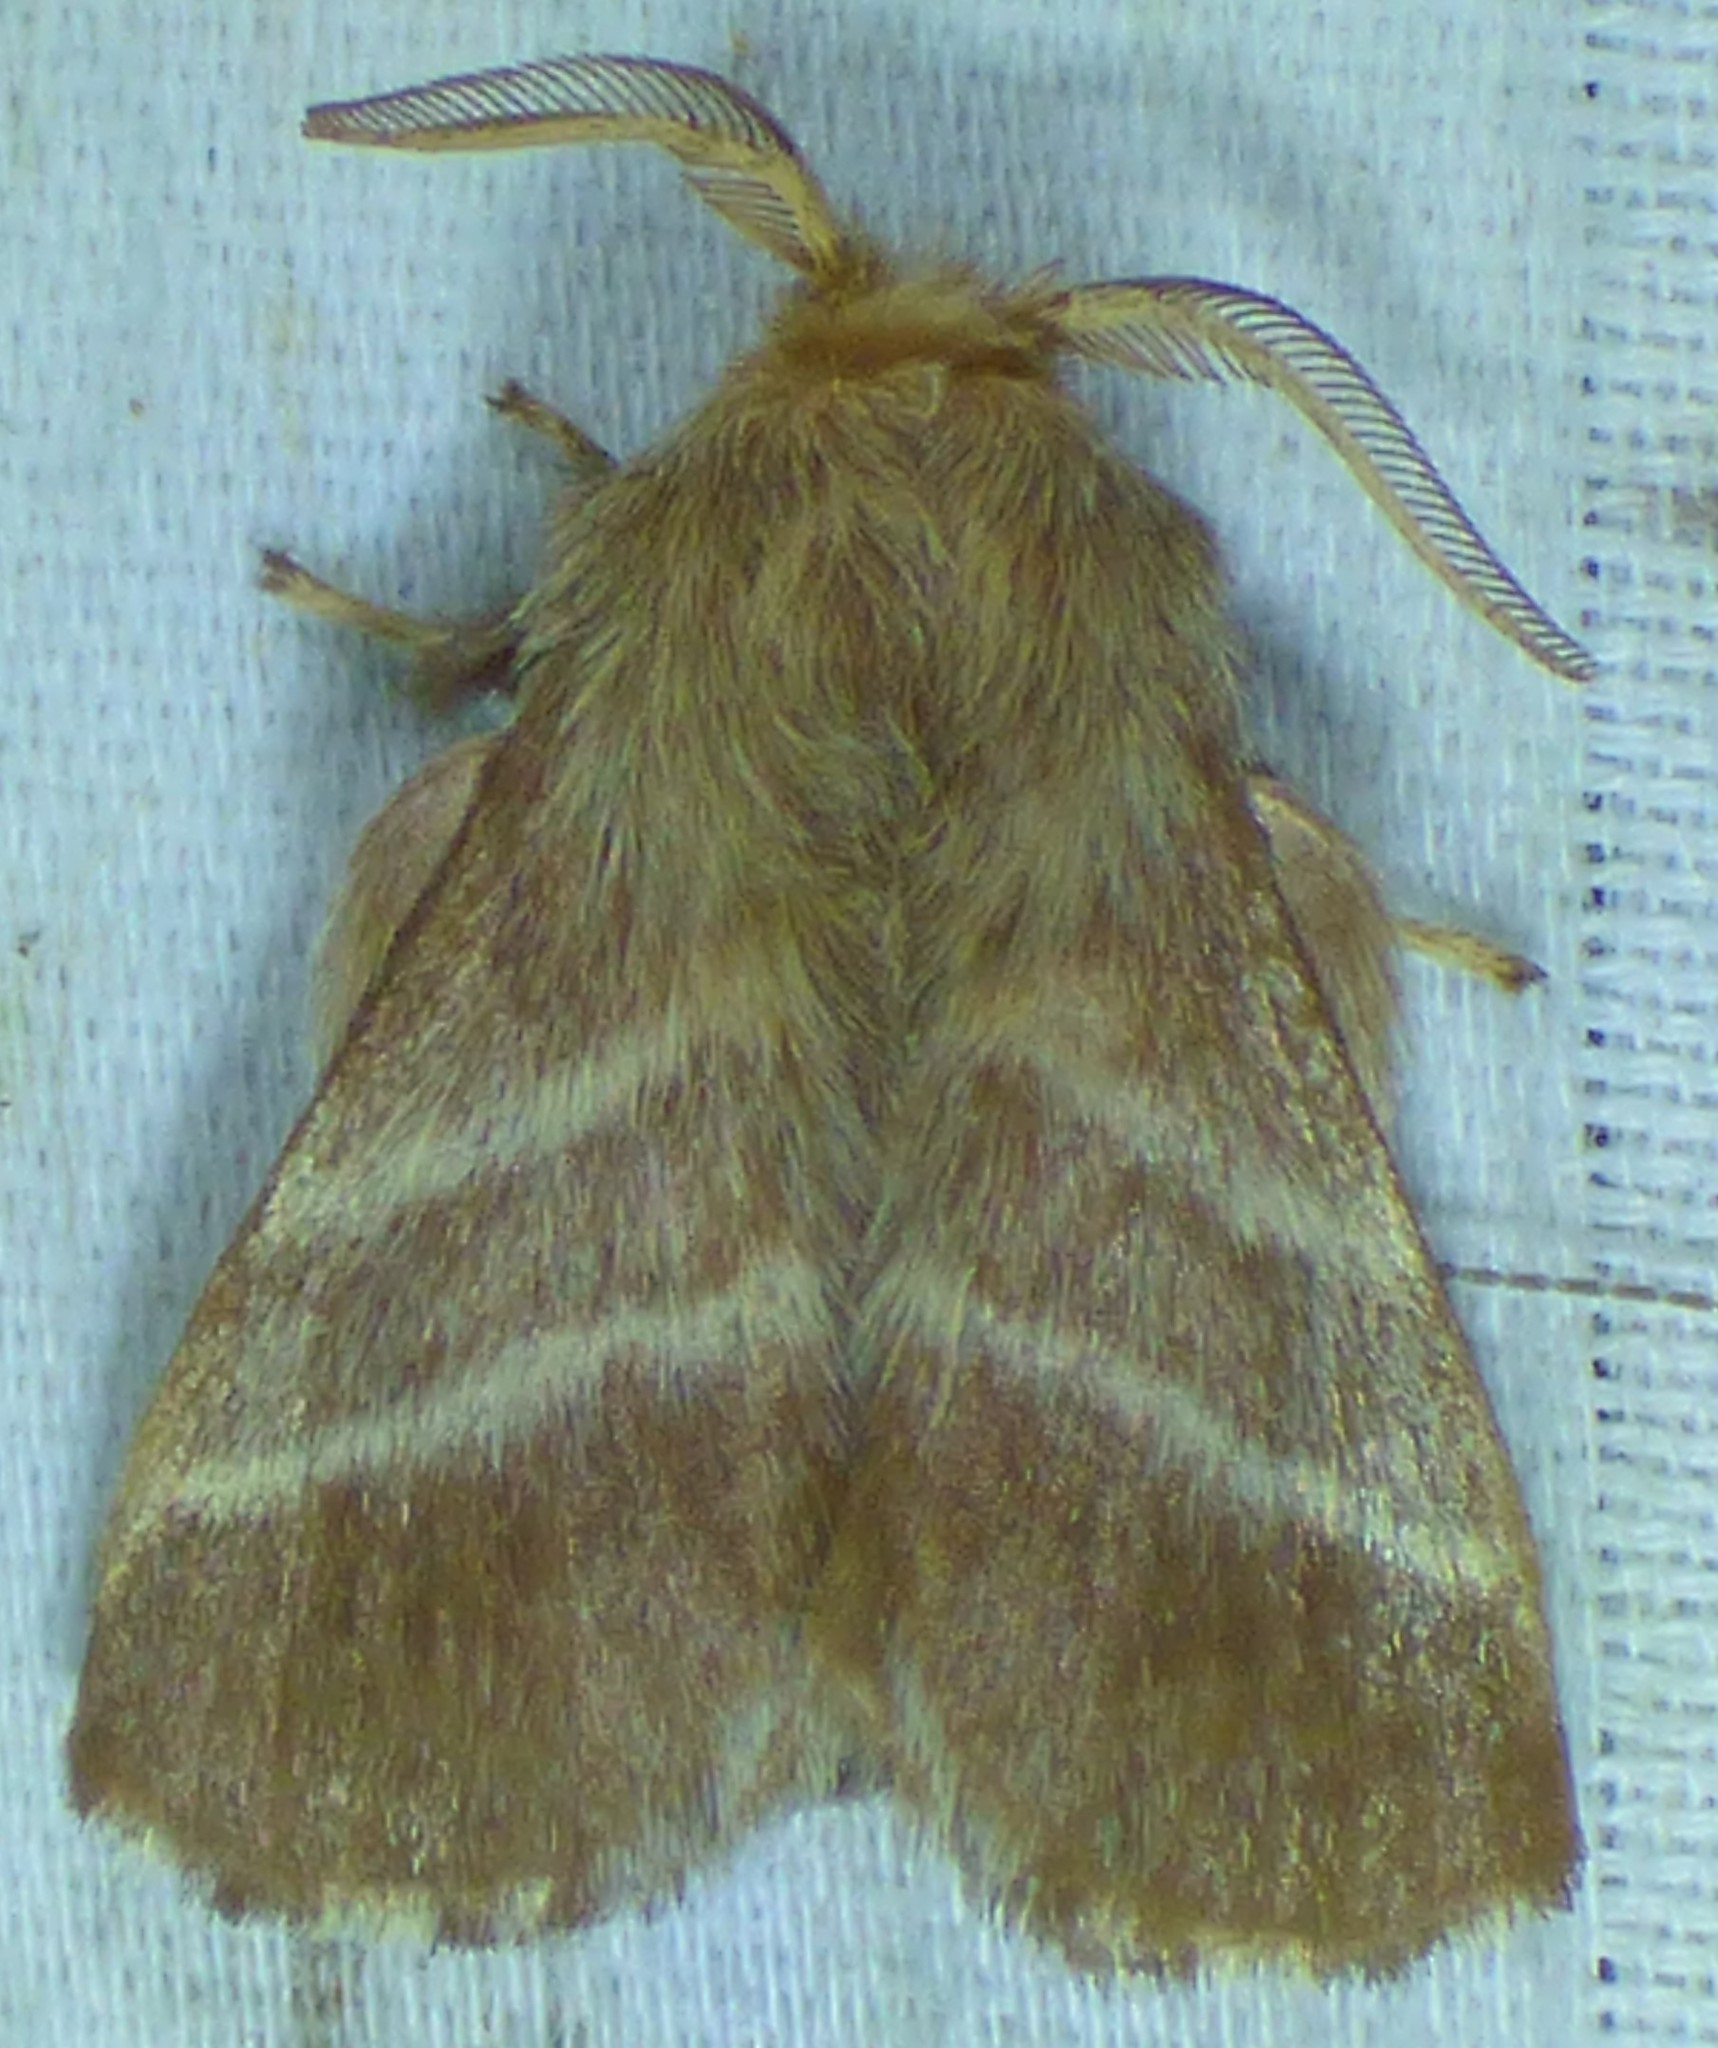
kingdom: Animalia
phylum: Arthropoda
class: Insecta
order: Lepidoptera
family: Lasiocampidae
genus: Malacosoma
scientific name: Malacosoma americana
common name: Eastern tent caterpillar moth
